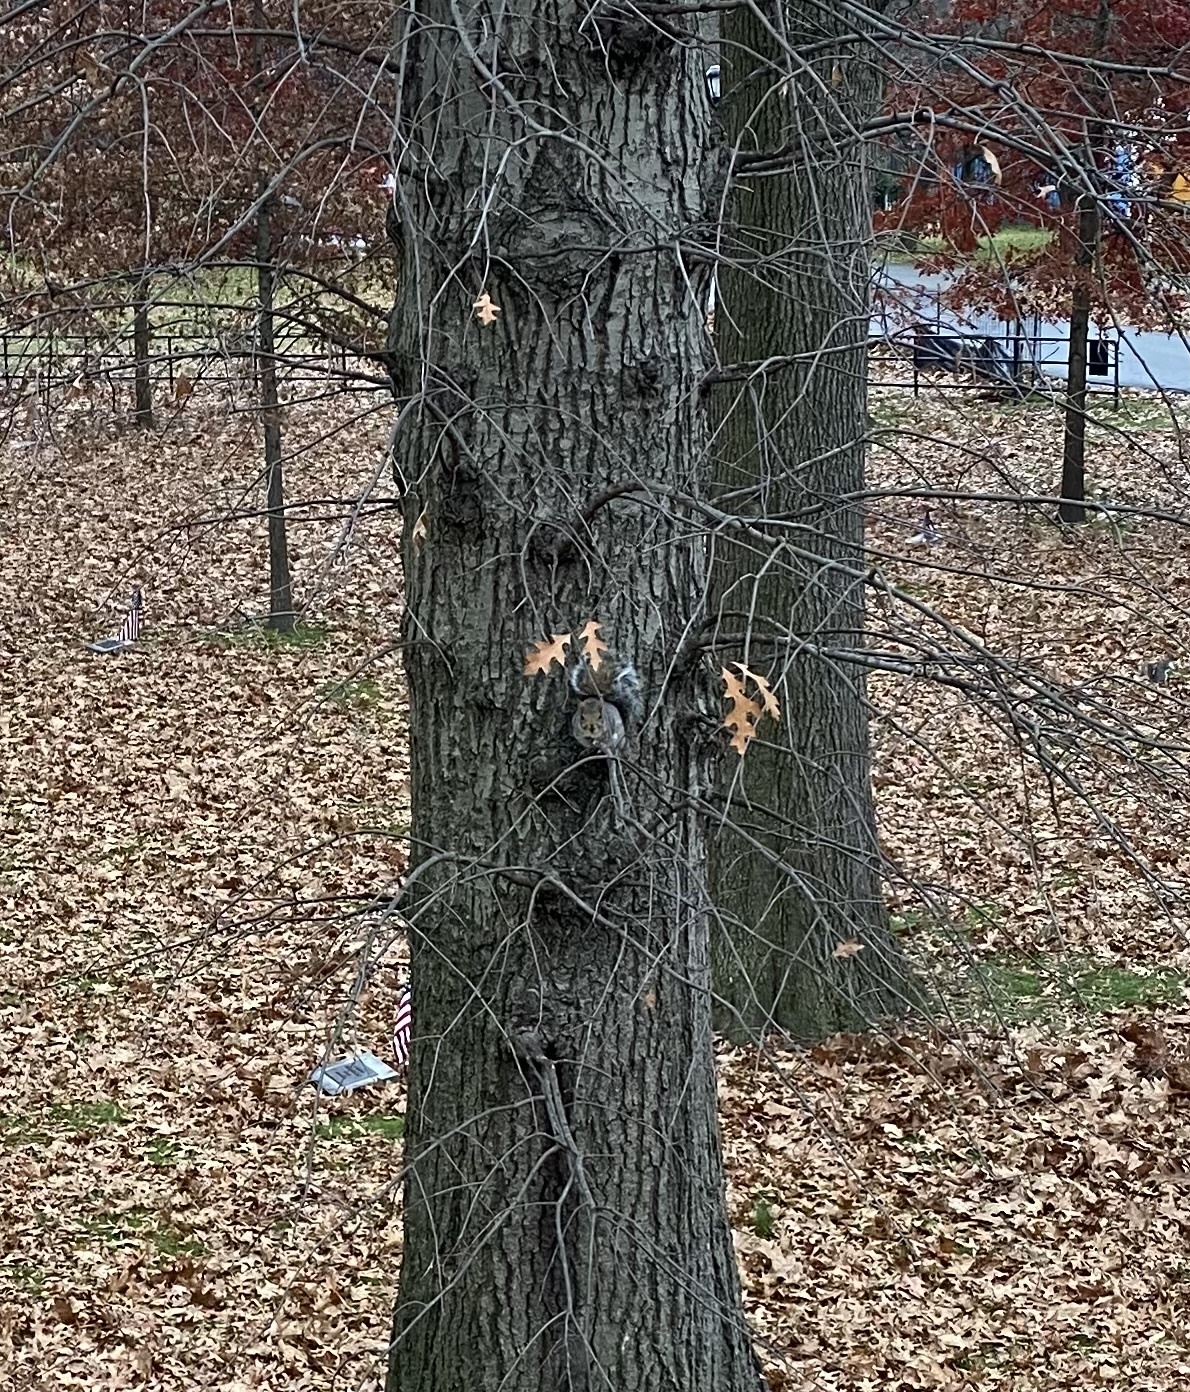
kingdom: Animalia
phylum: Chordata
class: Mammalia
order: Rodentia
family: Sciuridae
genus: Sciurus
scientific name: Sciurus carolinensis
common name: Eastern gray squirrel
